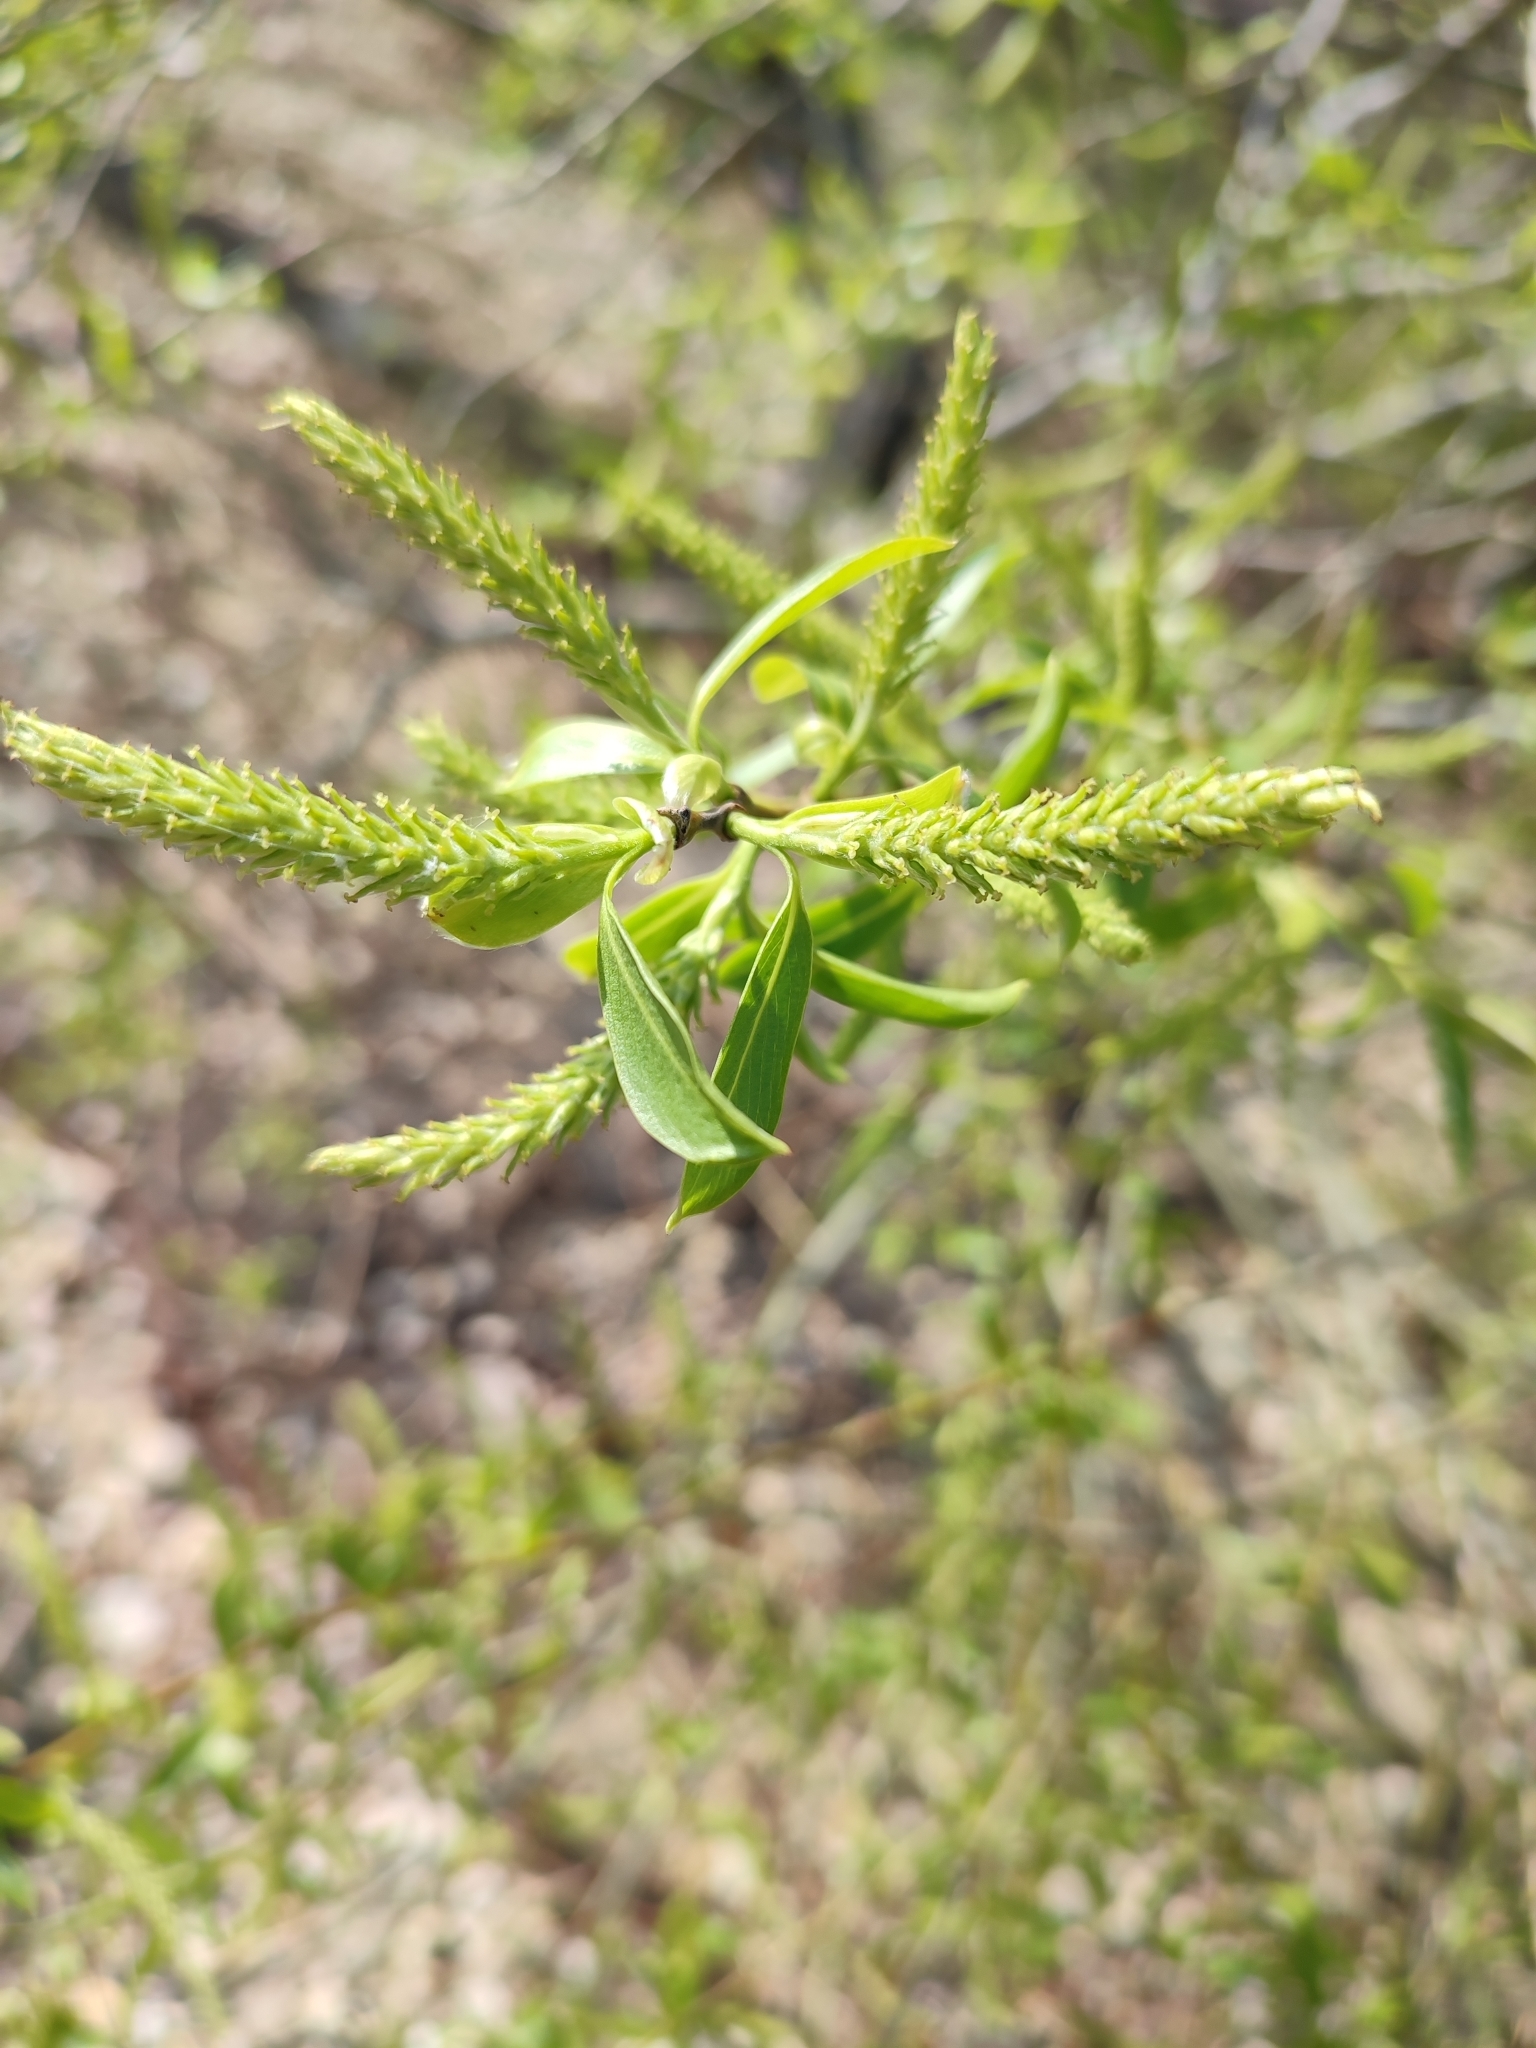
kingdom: Plantae
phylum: Tracheophyta
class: Magnoliopsida
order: Malpighiales
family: Salicaceae
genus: Salix
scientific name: Salix alba
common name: White willow
